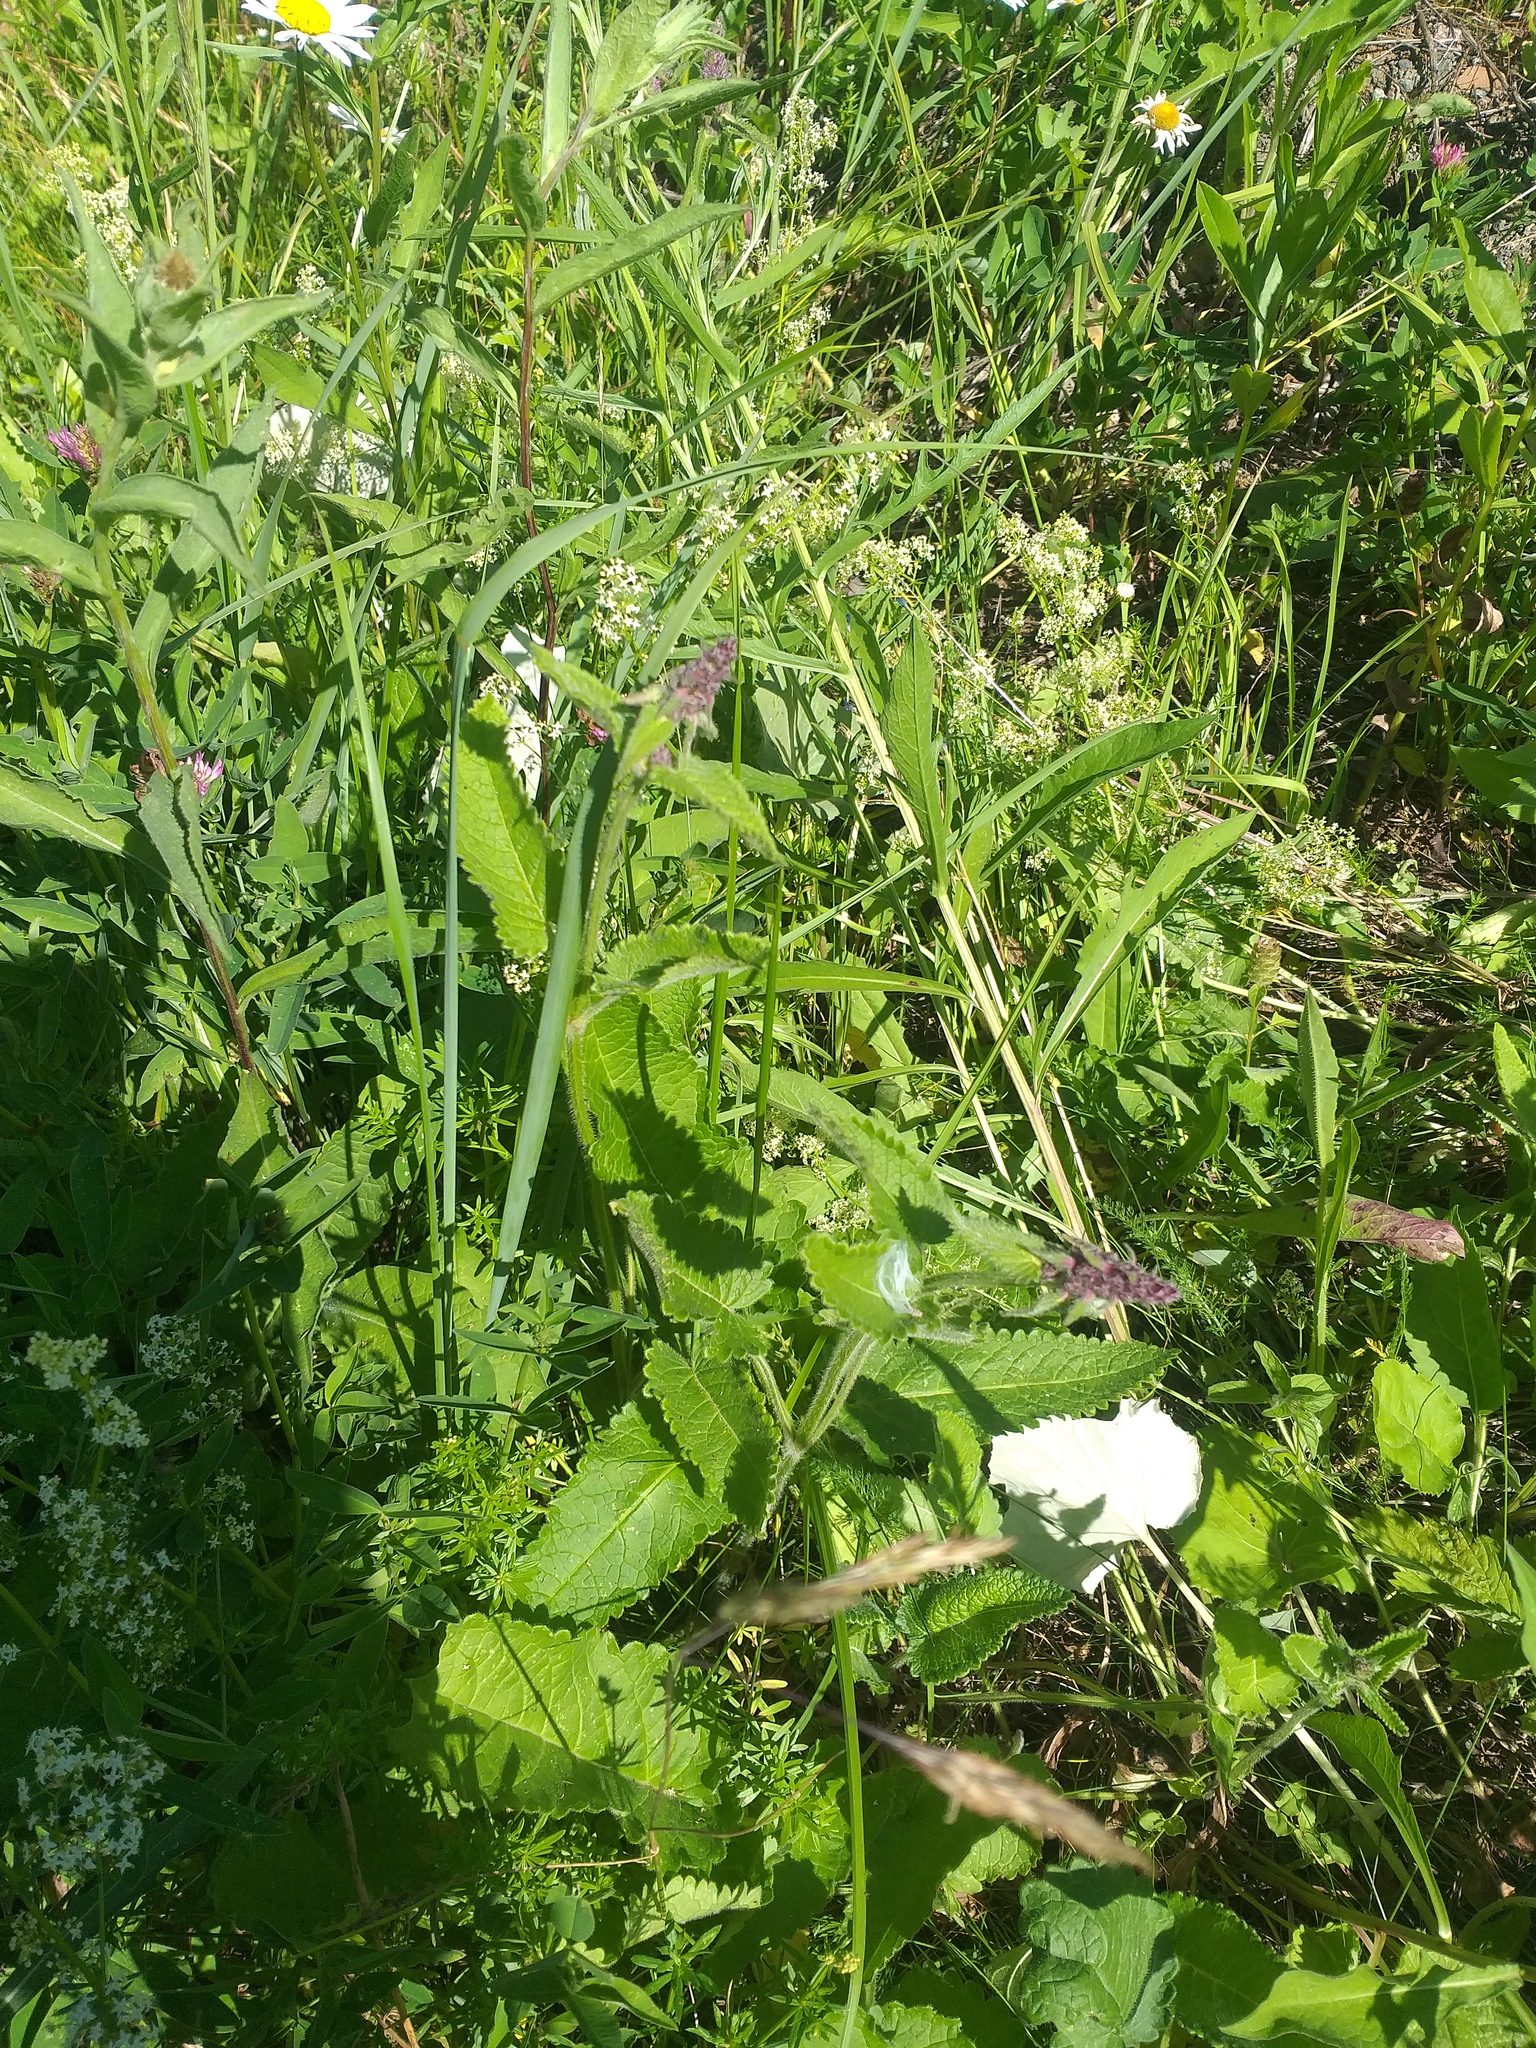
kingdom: Plantae
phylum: Tracheophyta
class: Magnoliopsida
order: Lamiales
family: Lamiaceae
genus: Betonica
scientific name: Betonica officinalis
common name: Bishop's-wort
